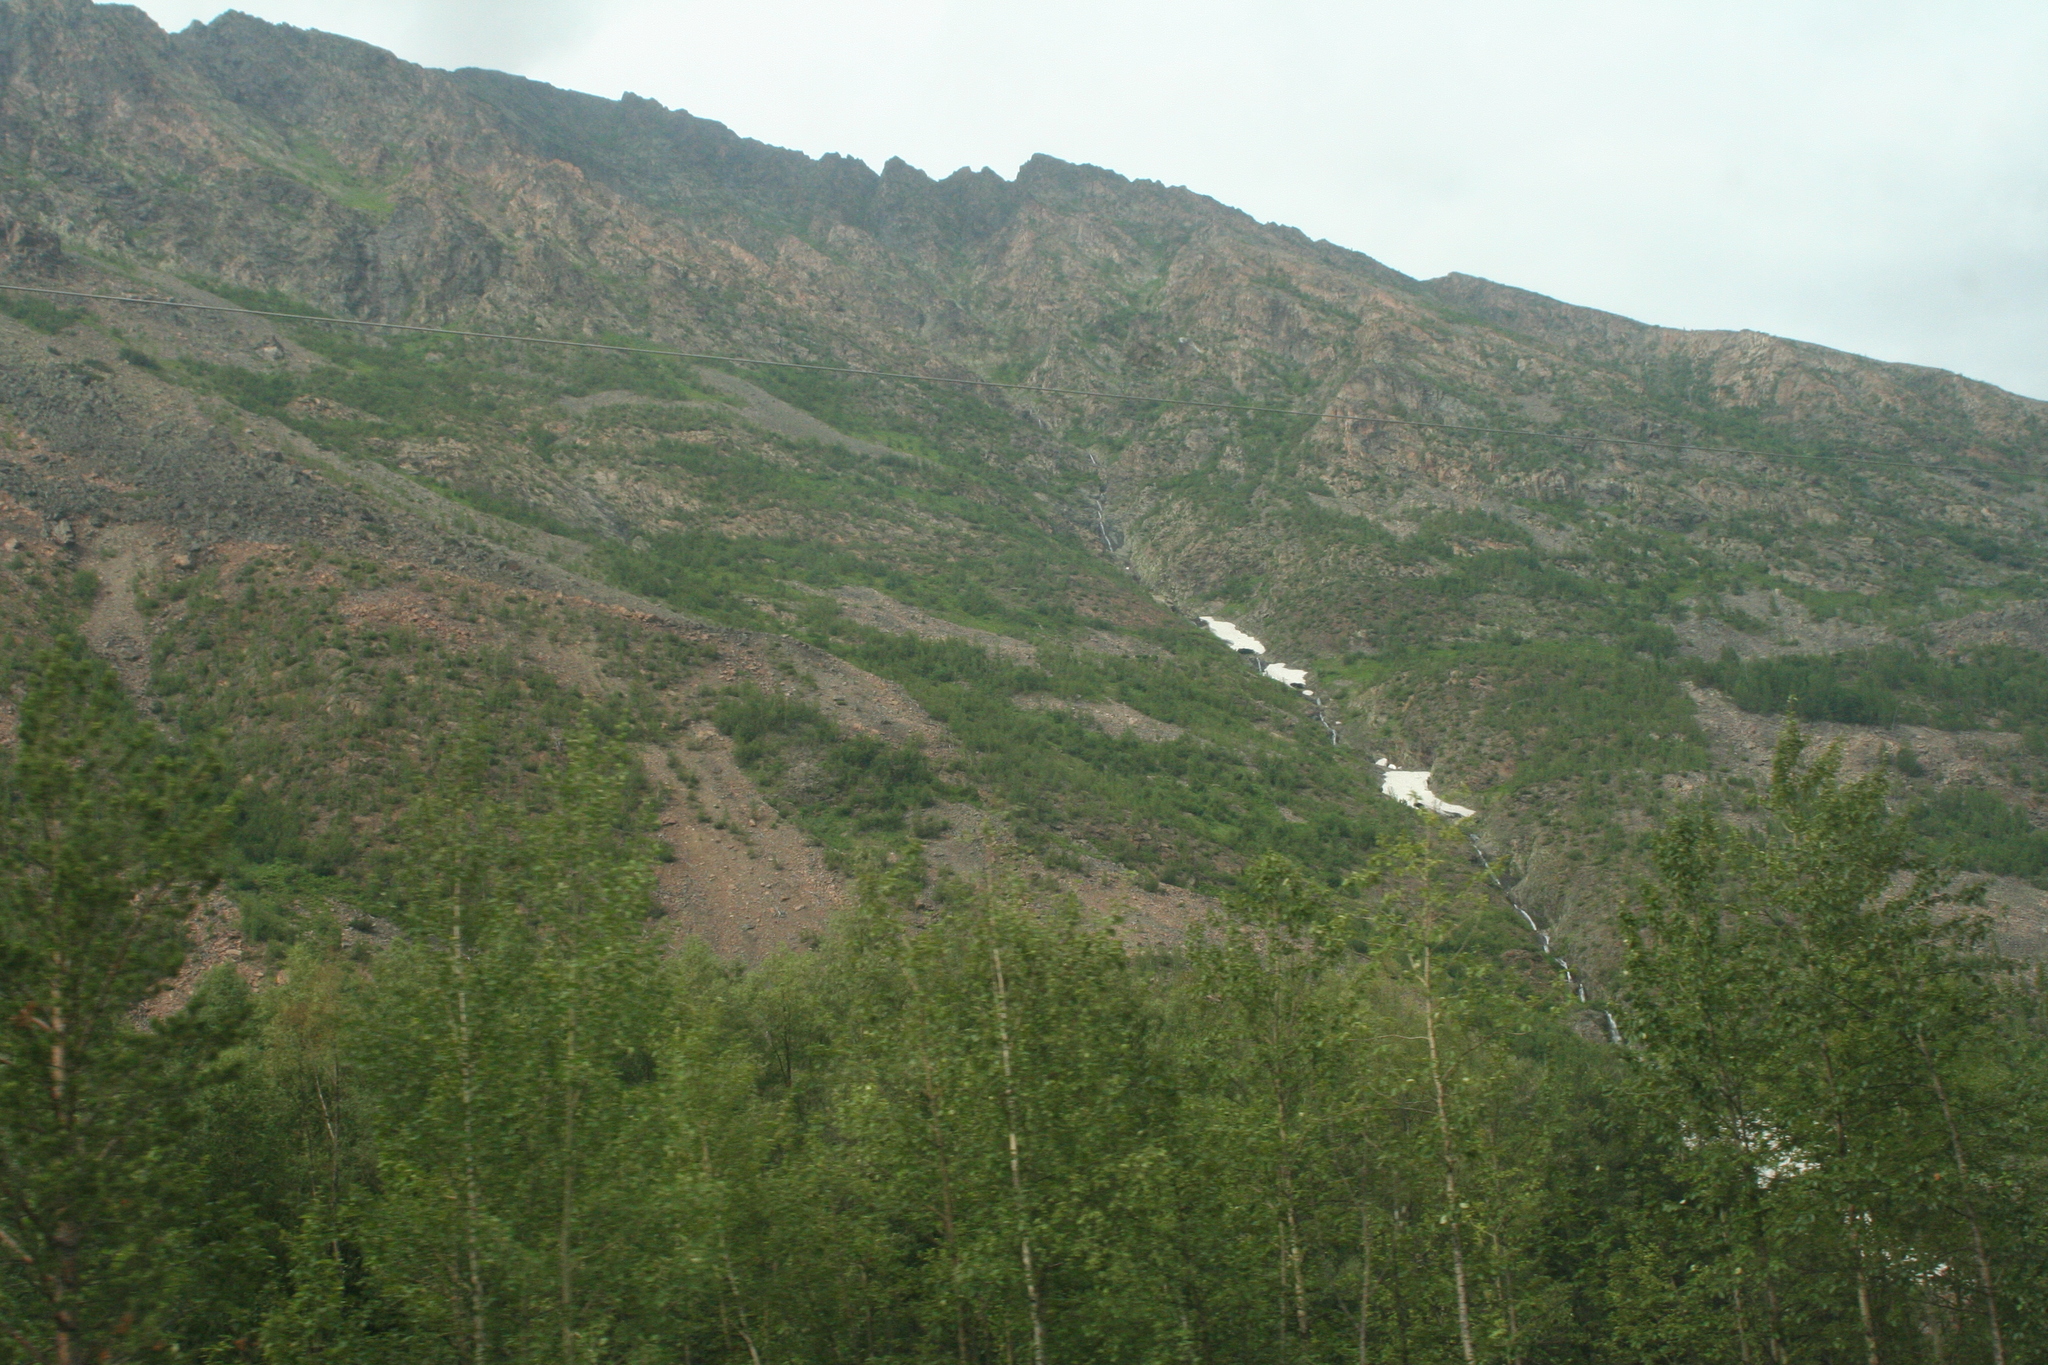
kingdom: Plantae
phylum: Tracheophyta
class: Magnoliopsida
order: Malpighiales
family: Salicaceae
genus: Populus
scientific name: Populus tremula
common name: European aspen
